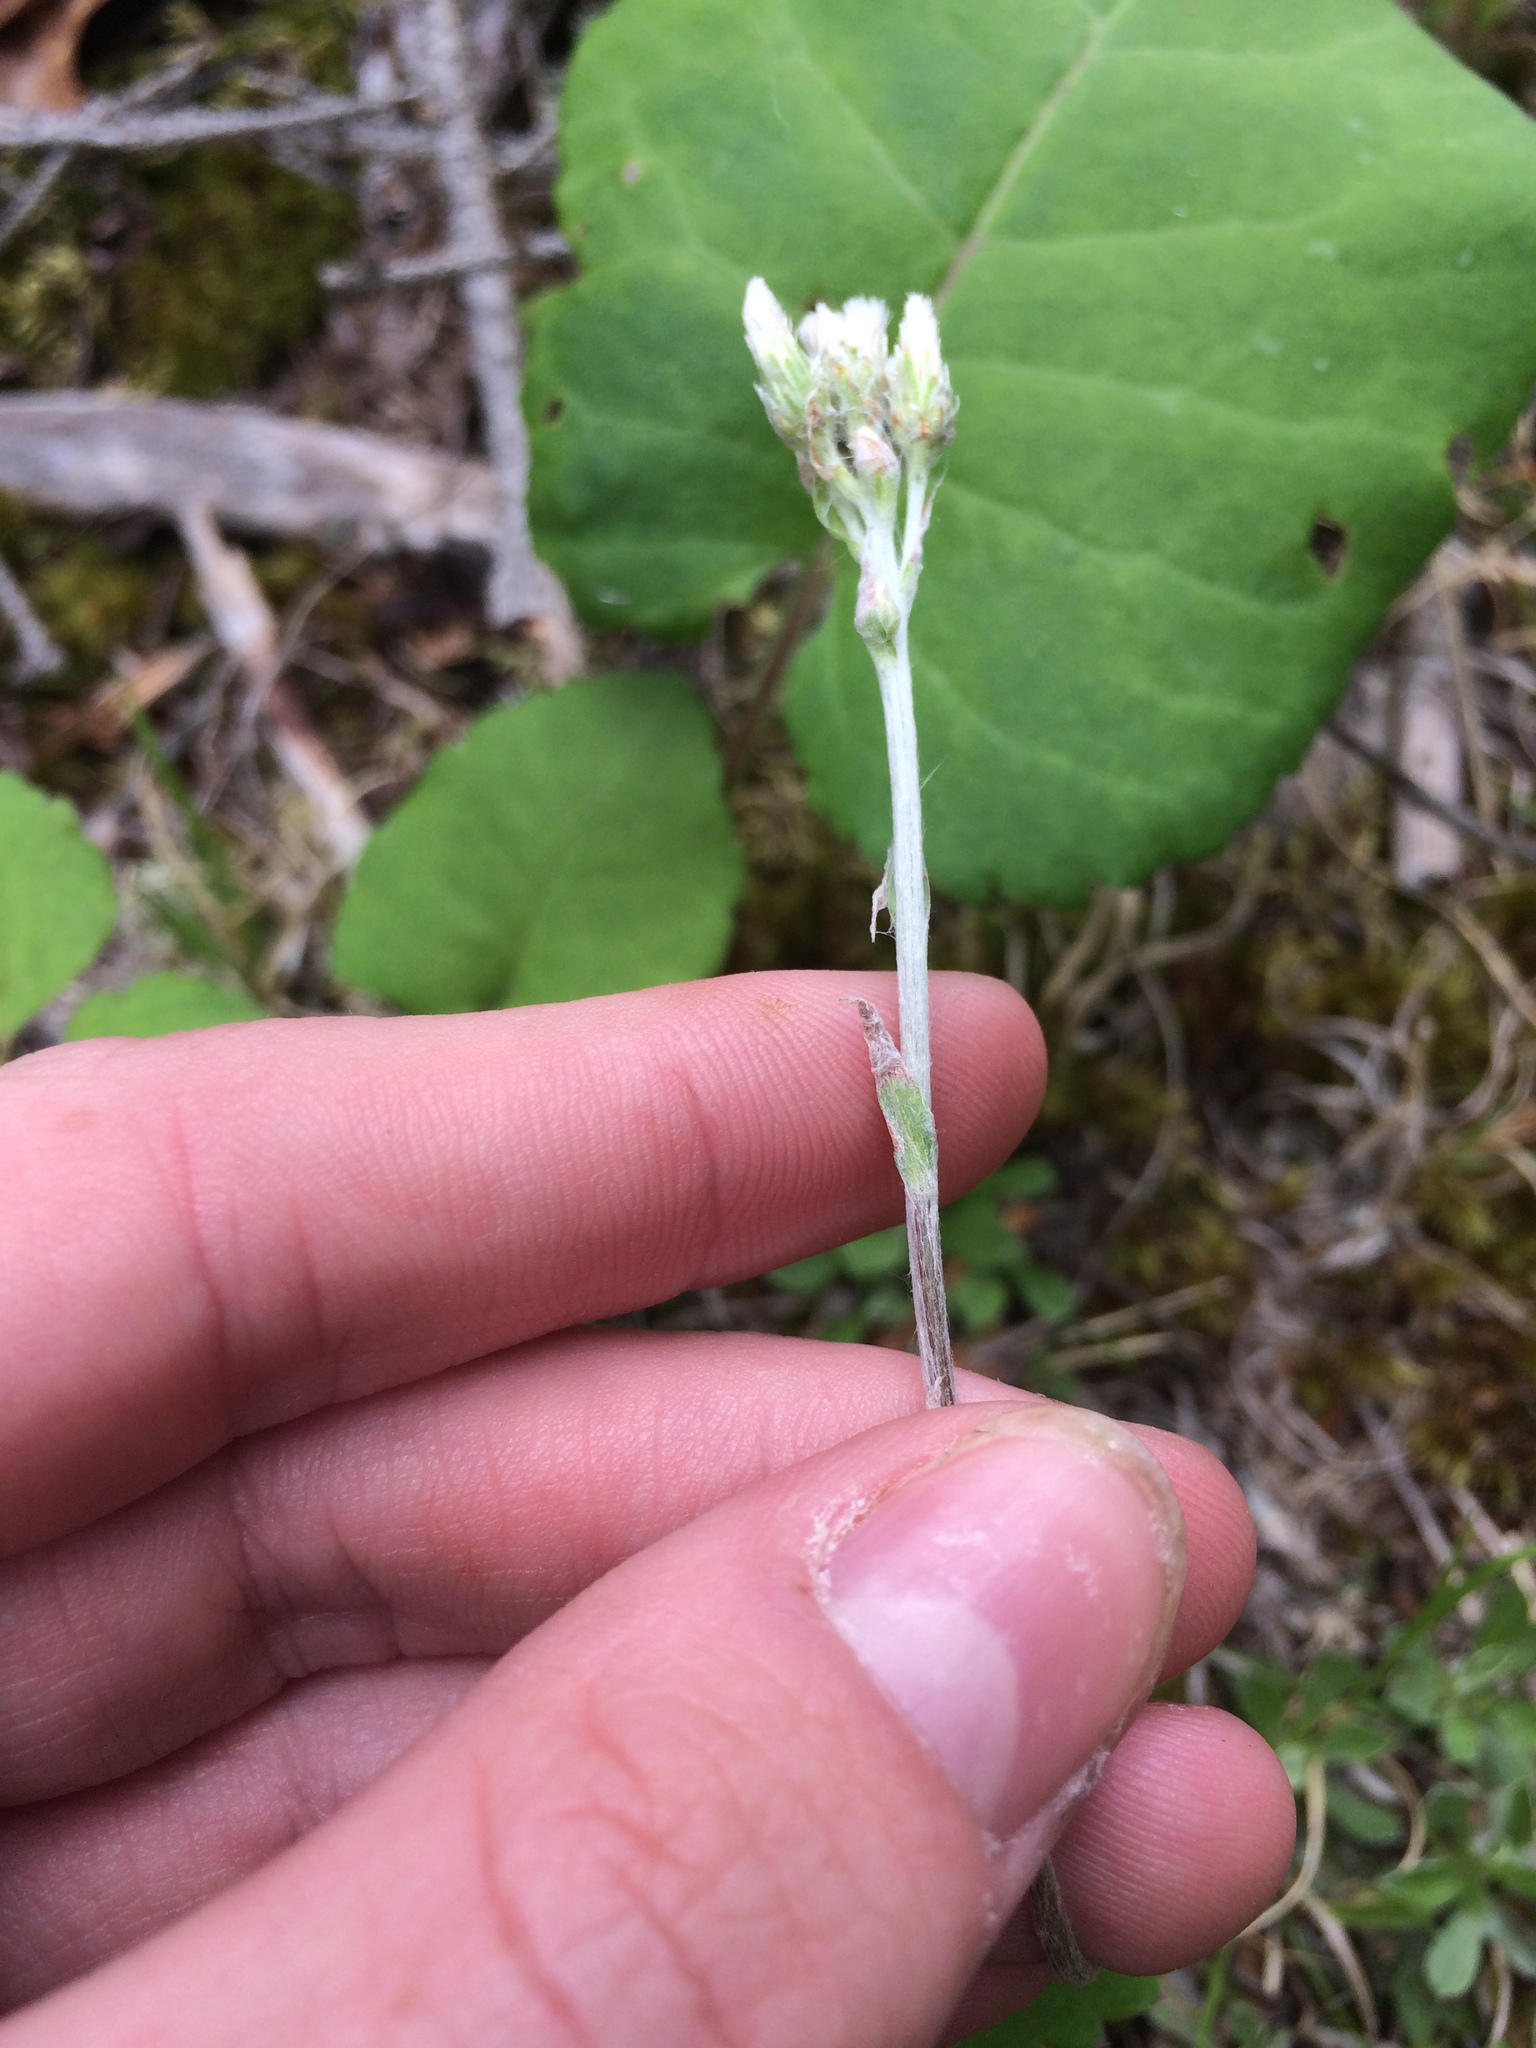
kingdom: Plantae
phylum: Tracheophyta
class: Magnoliopsida
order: Asterales
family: Asteraceae
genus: Antennaria
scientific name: Antennaria howellii
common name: Howell's pussytoes
